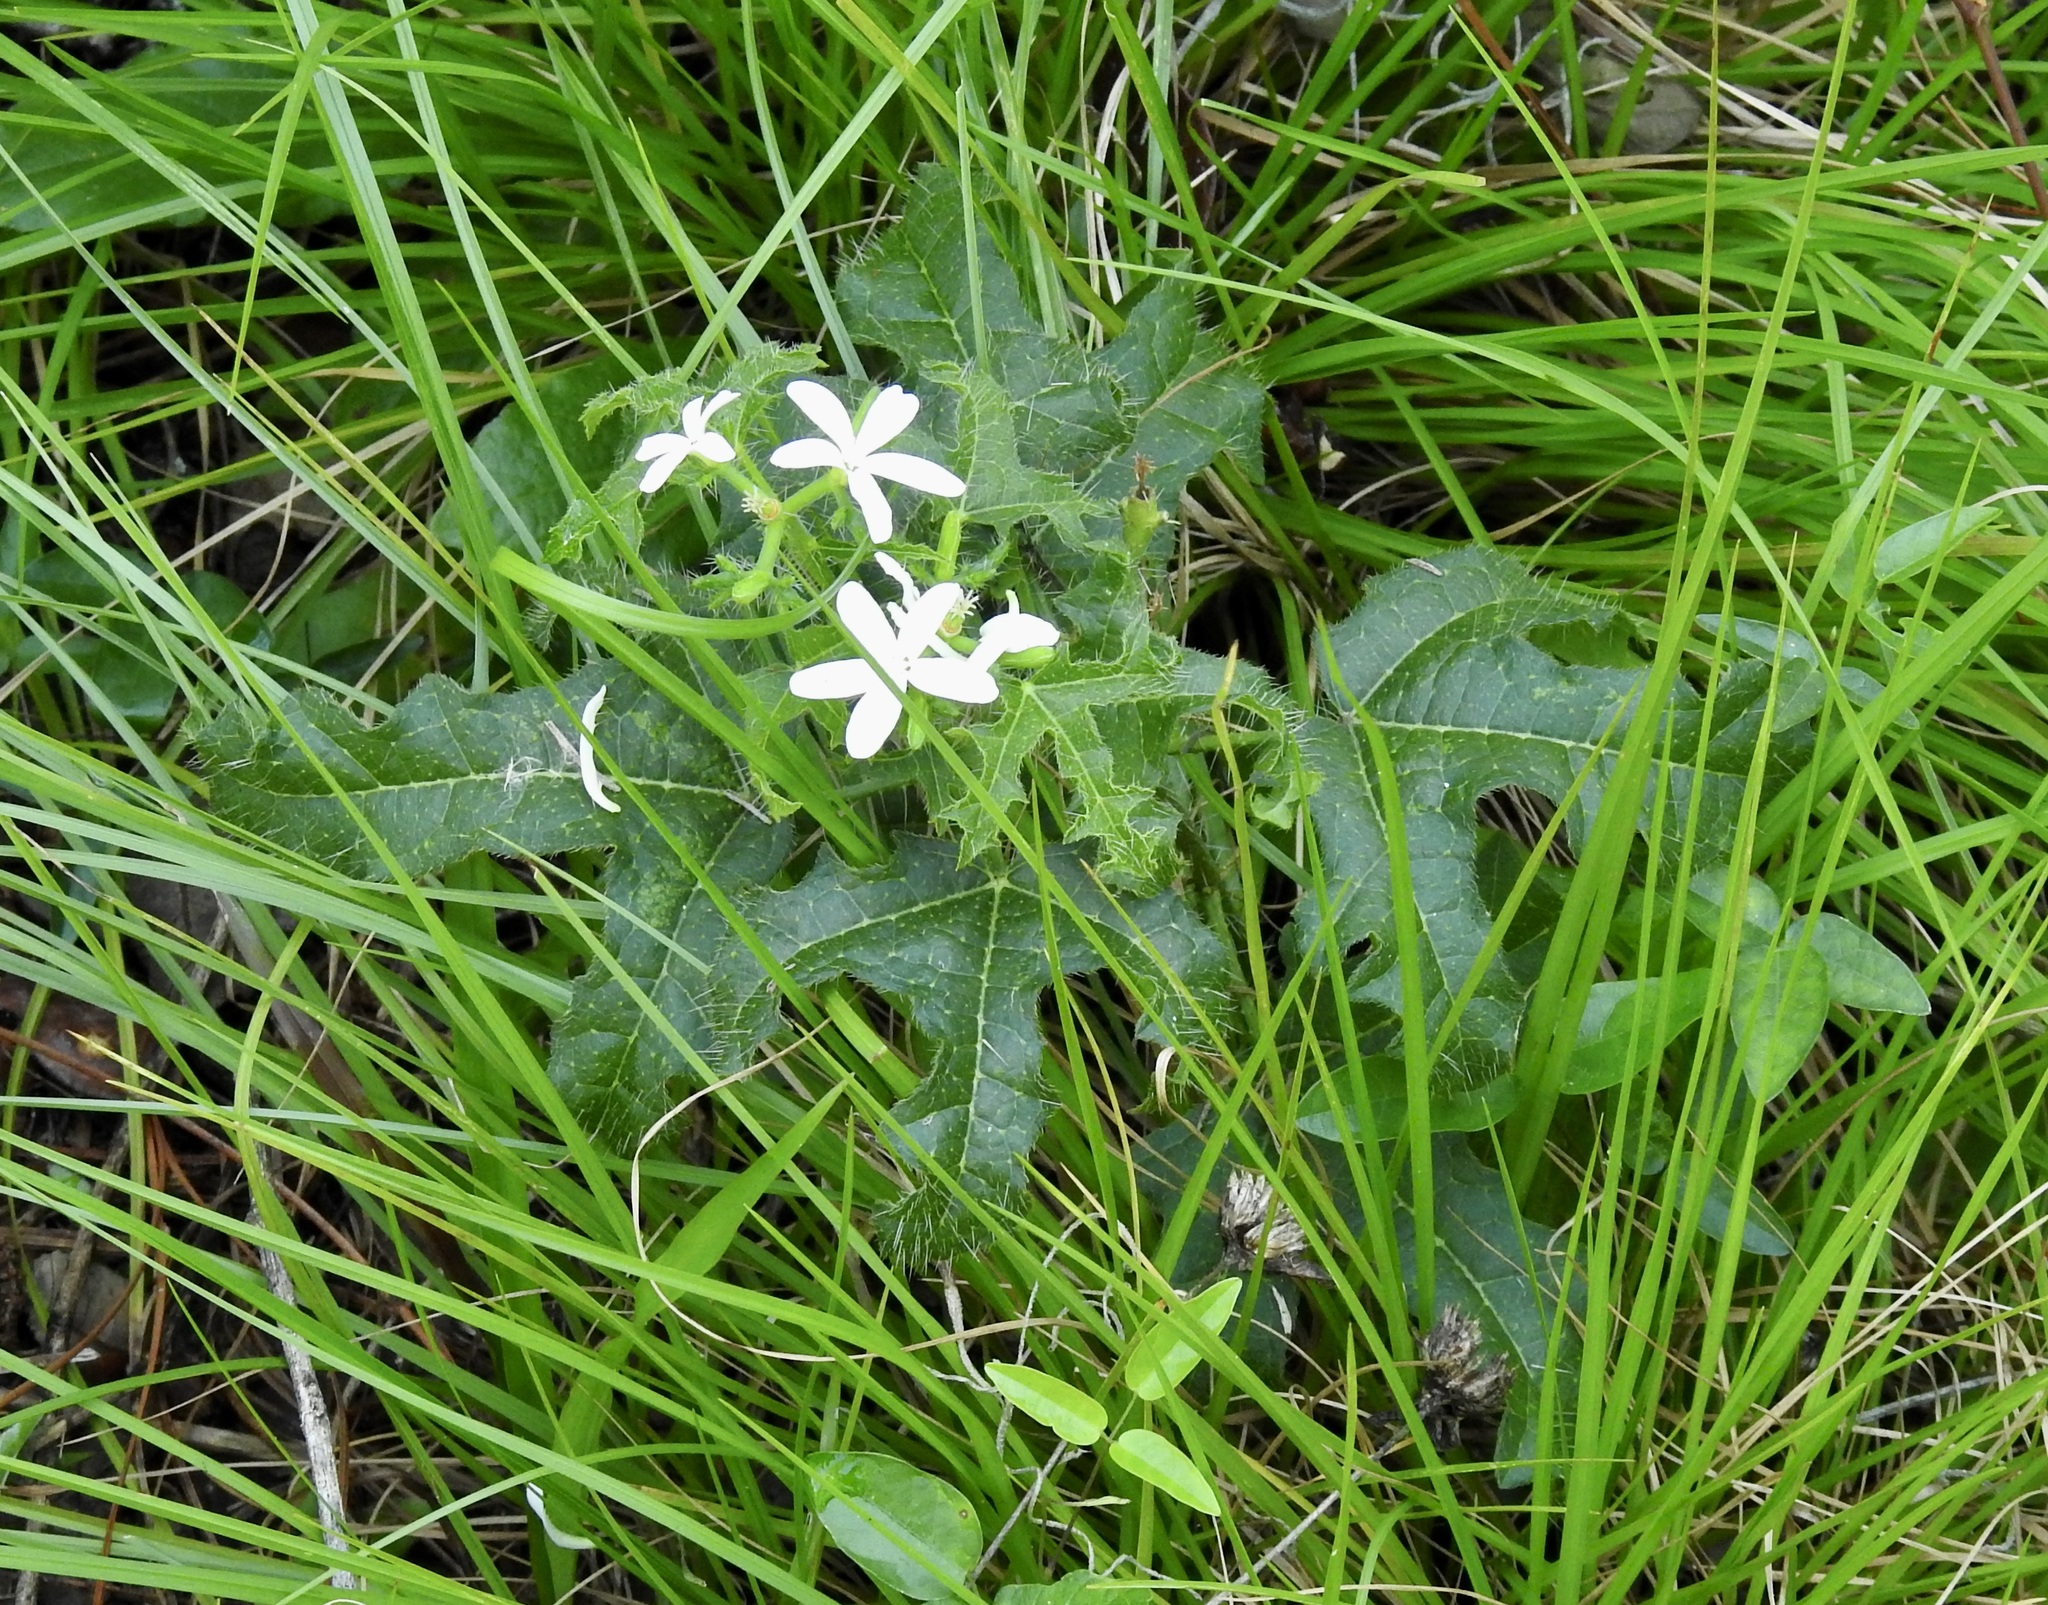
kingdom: Plantae
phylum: Tracheophyta
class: Magnoliopsida
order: Malpighiales
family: Euphorbiaceae
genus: Cnidoscolus
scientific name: Cnidoscolus stimulosus
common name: Bull-nettle
